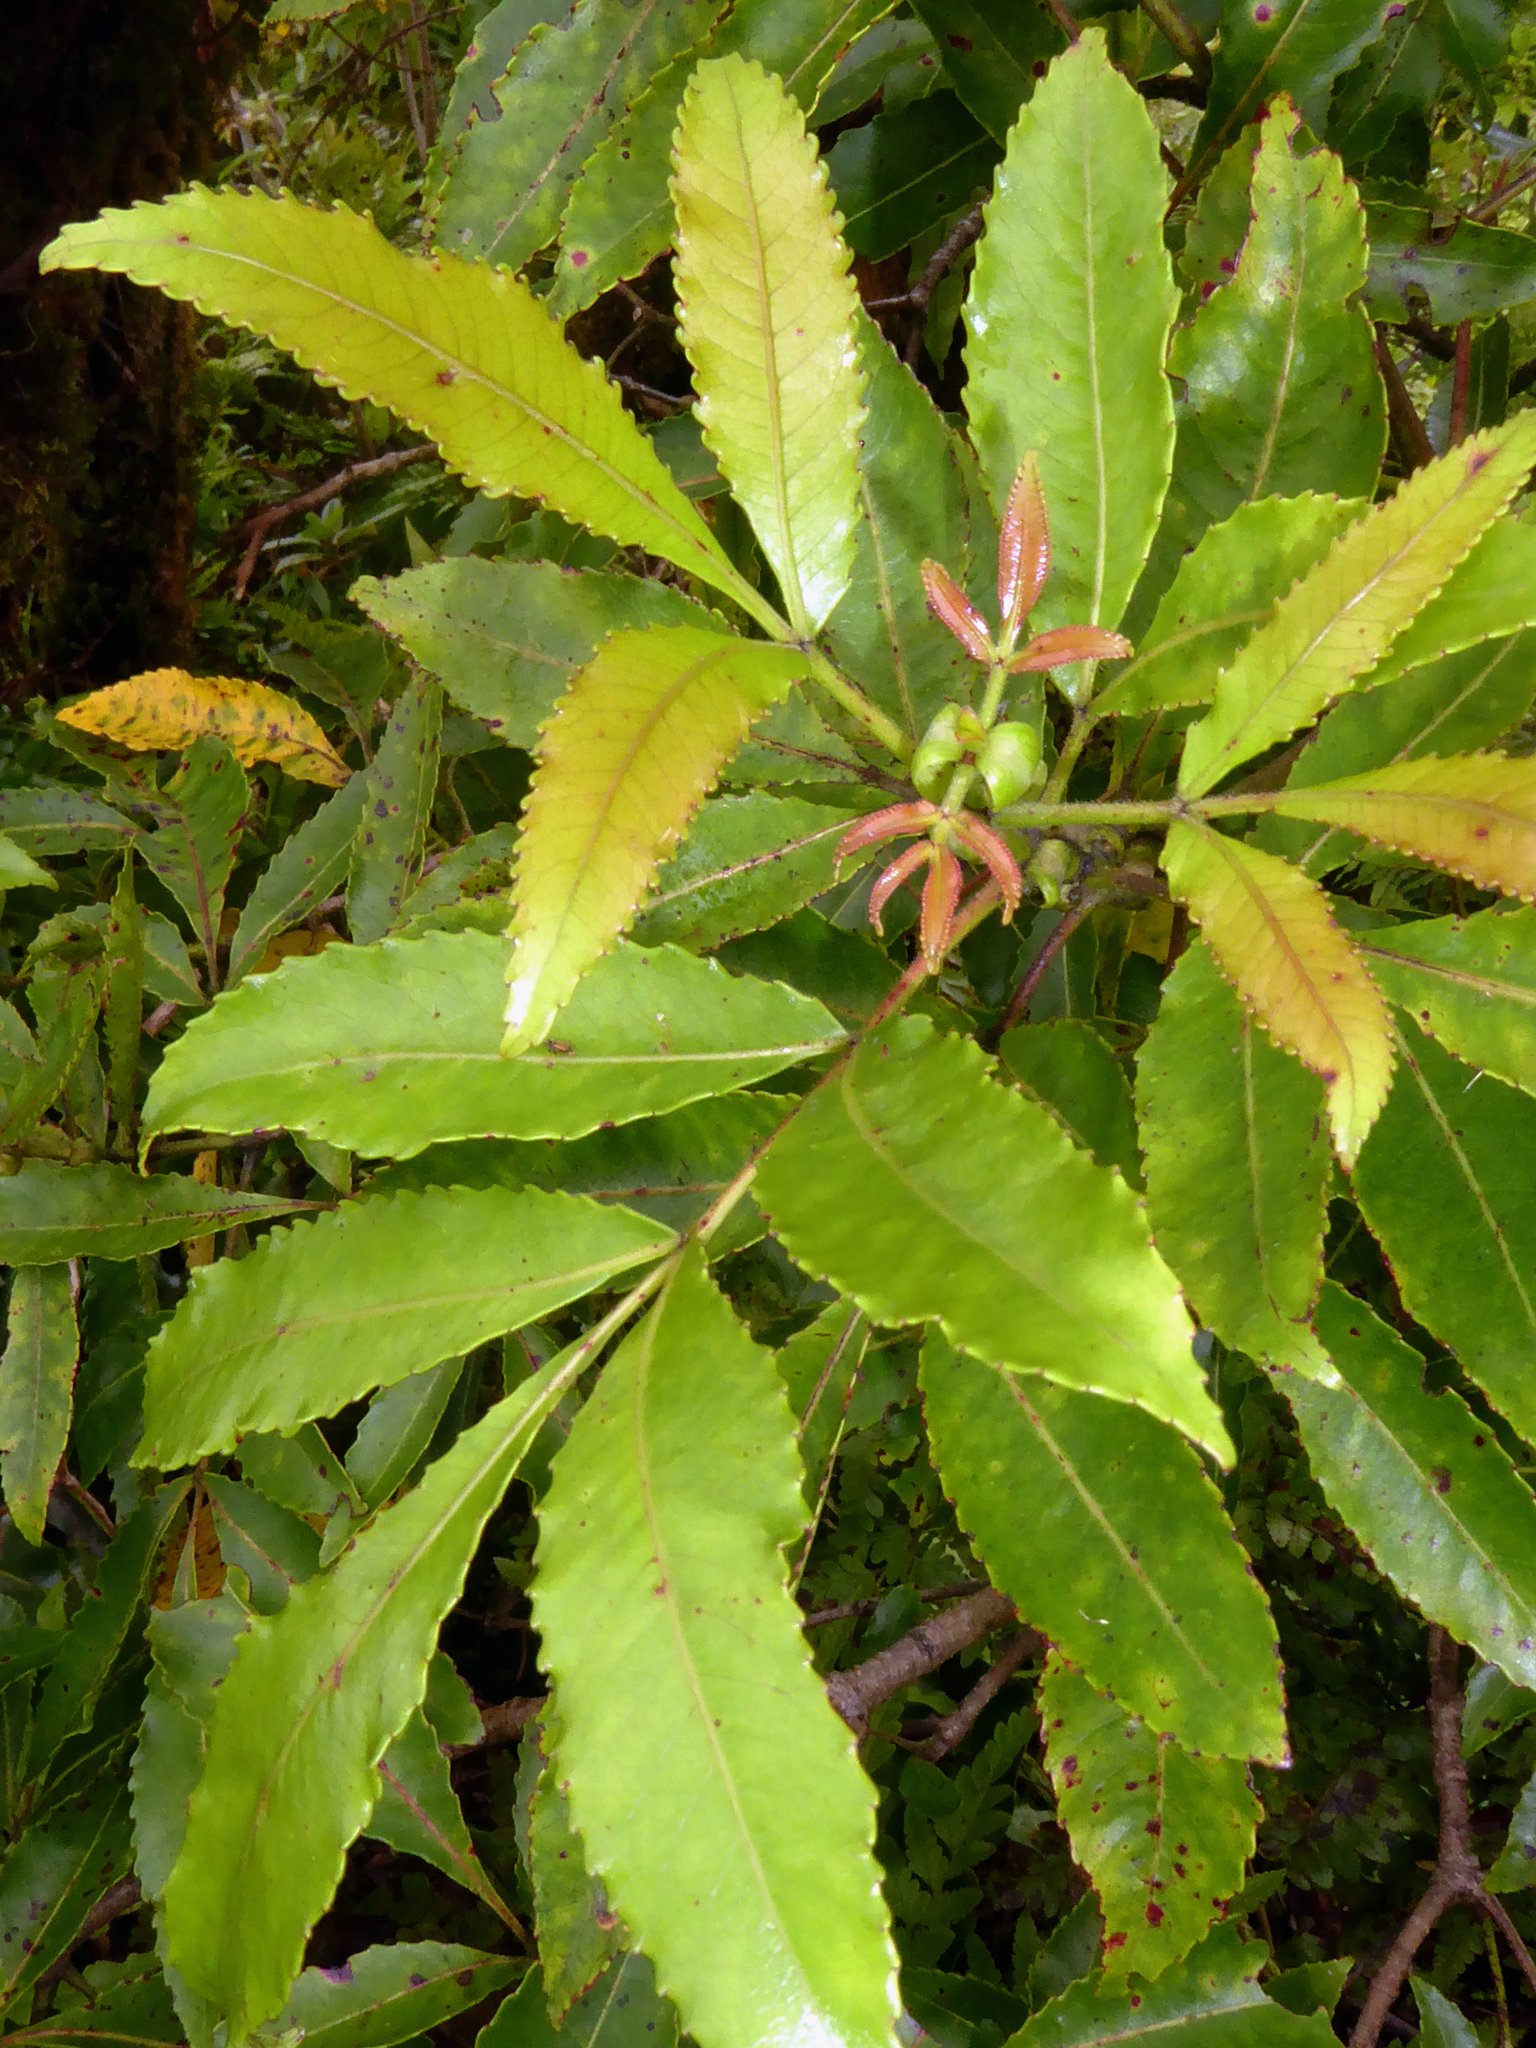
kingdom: Plantae
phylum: Tracheophyta
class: Magnoliopsida
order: Oxalidales
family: Cunoniaceae
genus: Pterophylla
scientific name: Pterophylla samoensis
